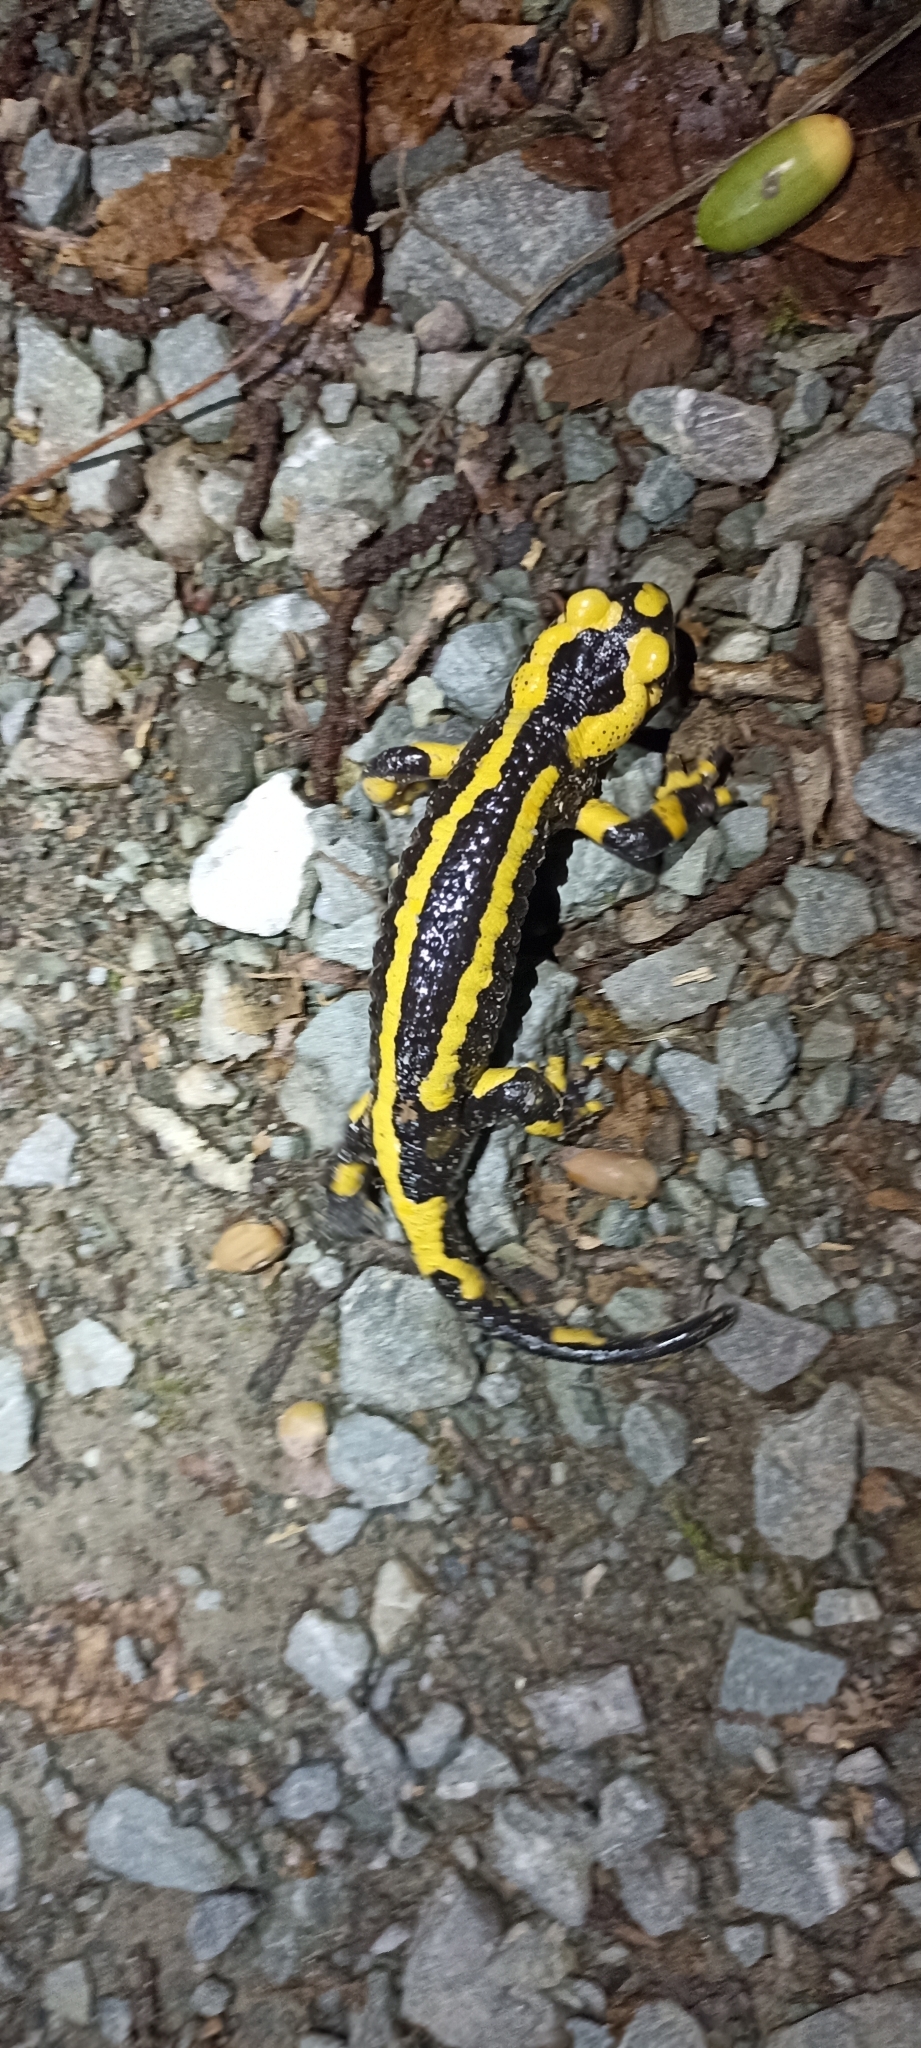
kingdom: Animalia
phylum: Chordata
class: Amphibia
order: Caudata
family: Salamandridae
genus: Salamandra
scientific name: Salamandra salamandra
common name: Fire salamander
